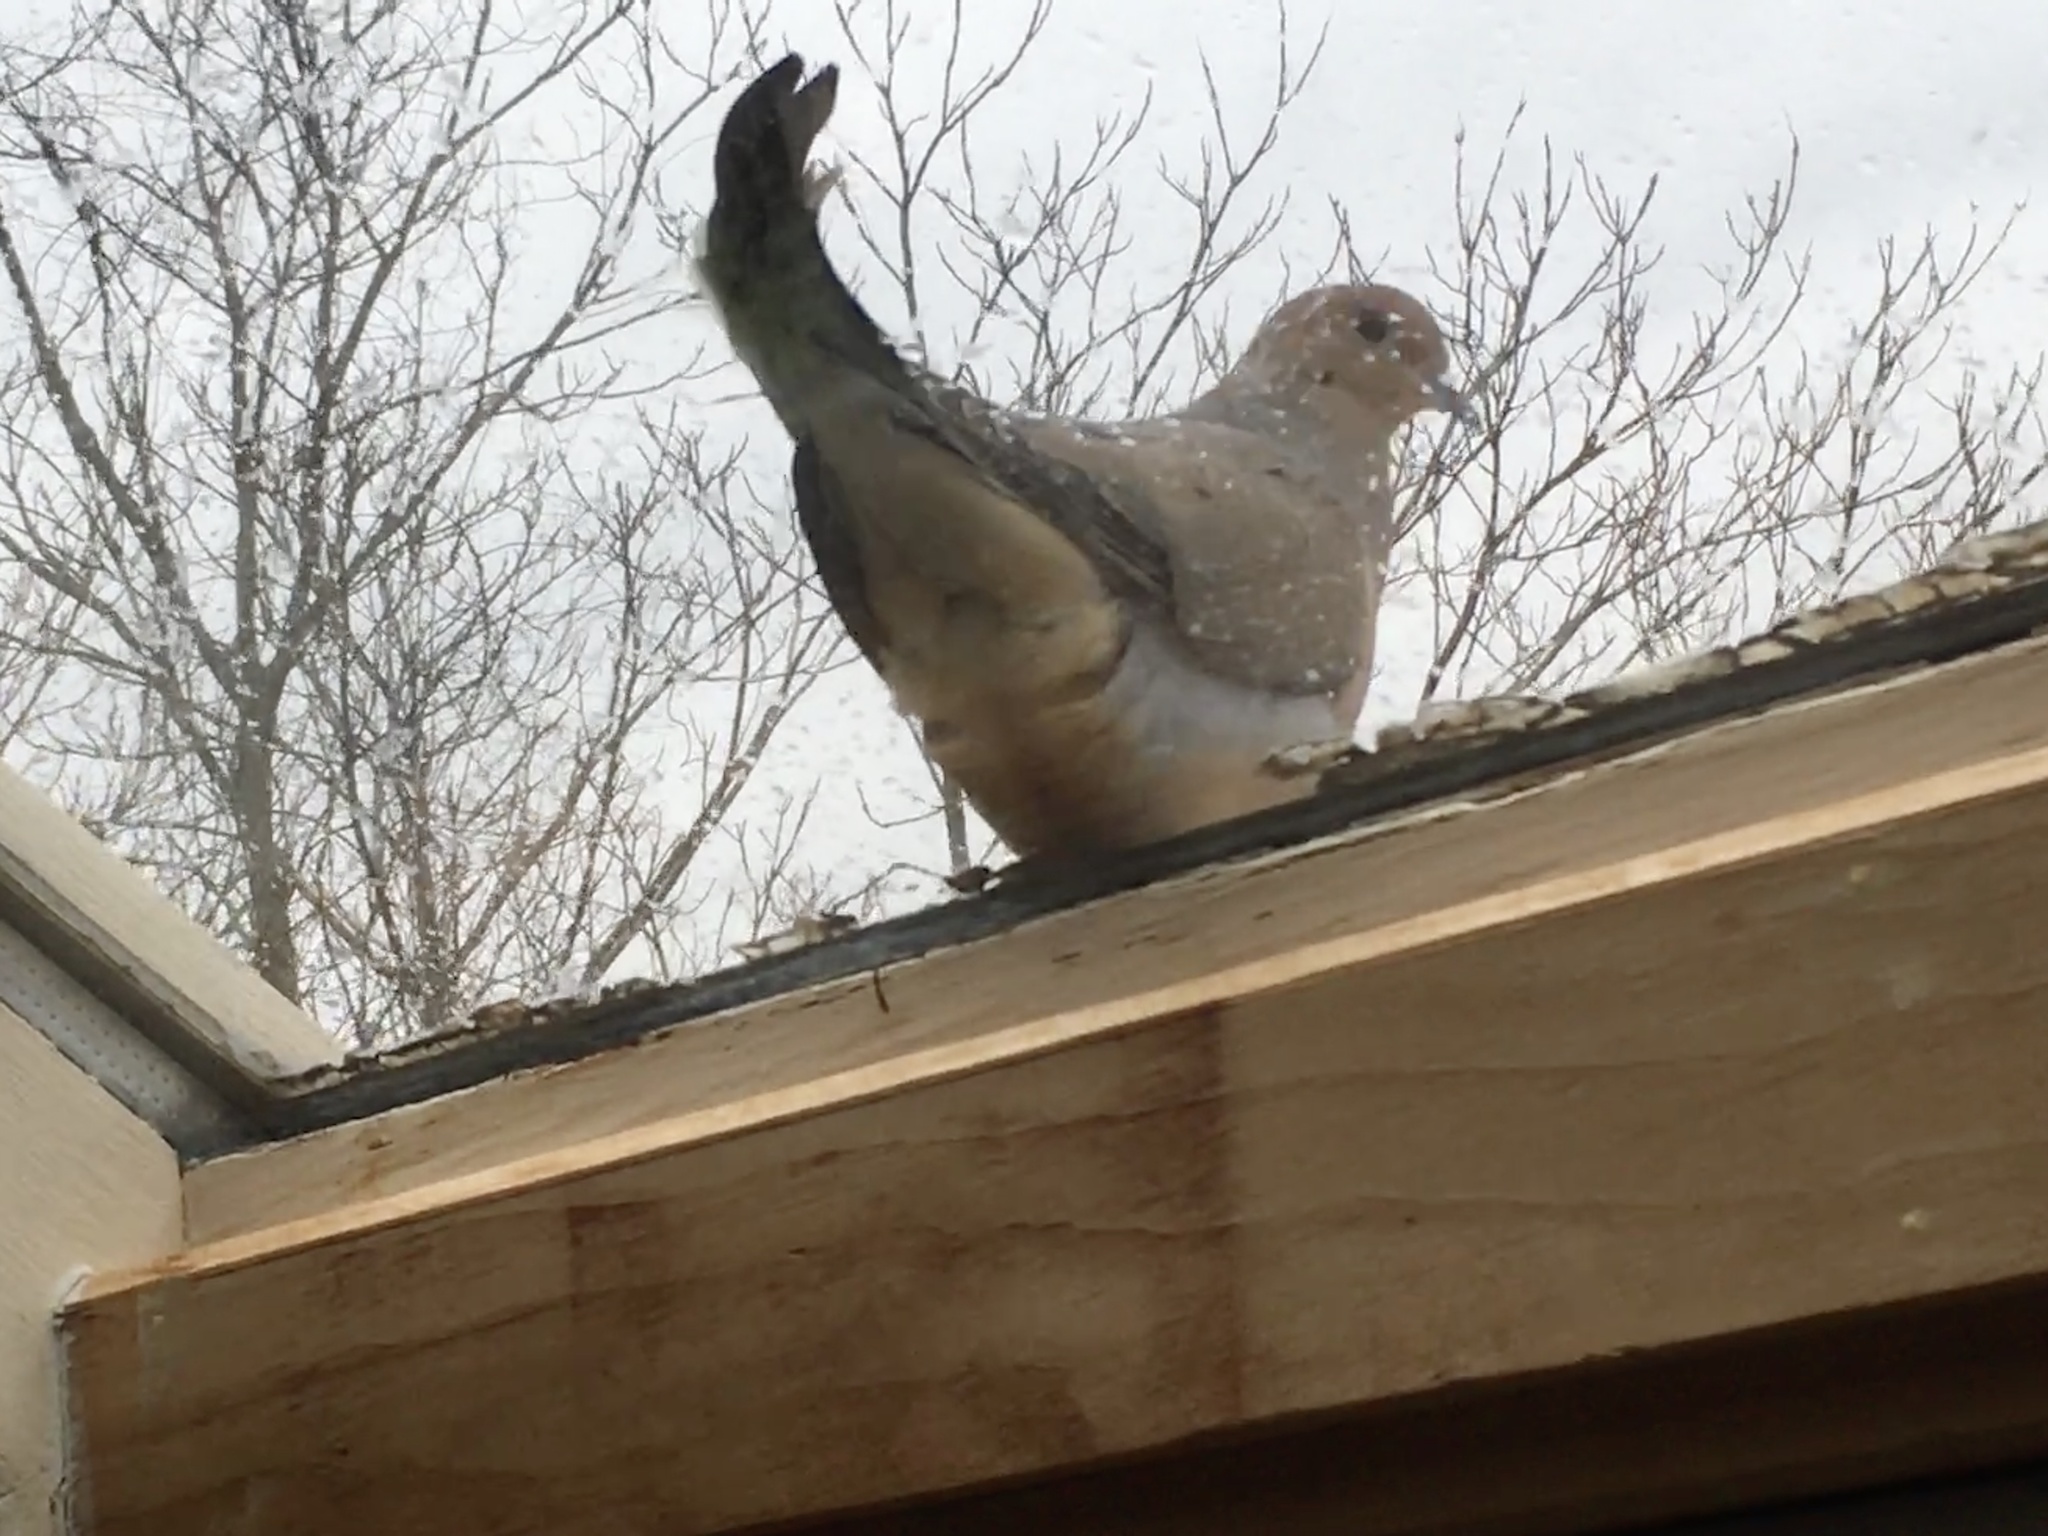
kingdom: Animalia
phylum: Chordata
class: Aves
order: Columbiformes
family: Columbidae
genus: Zenaida
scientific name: Zenaida macroura
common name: Mourning dove
